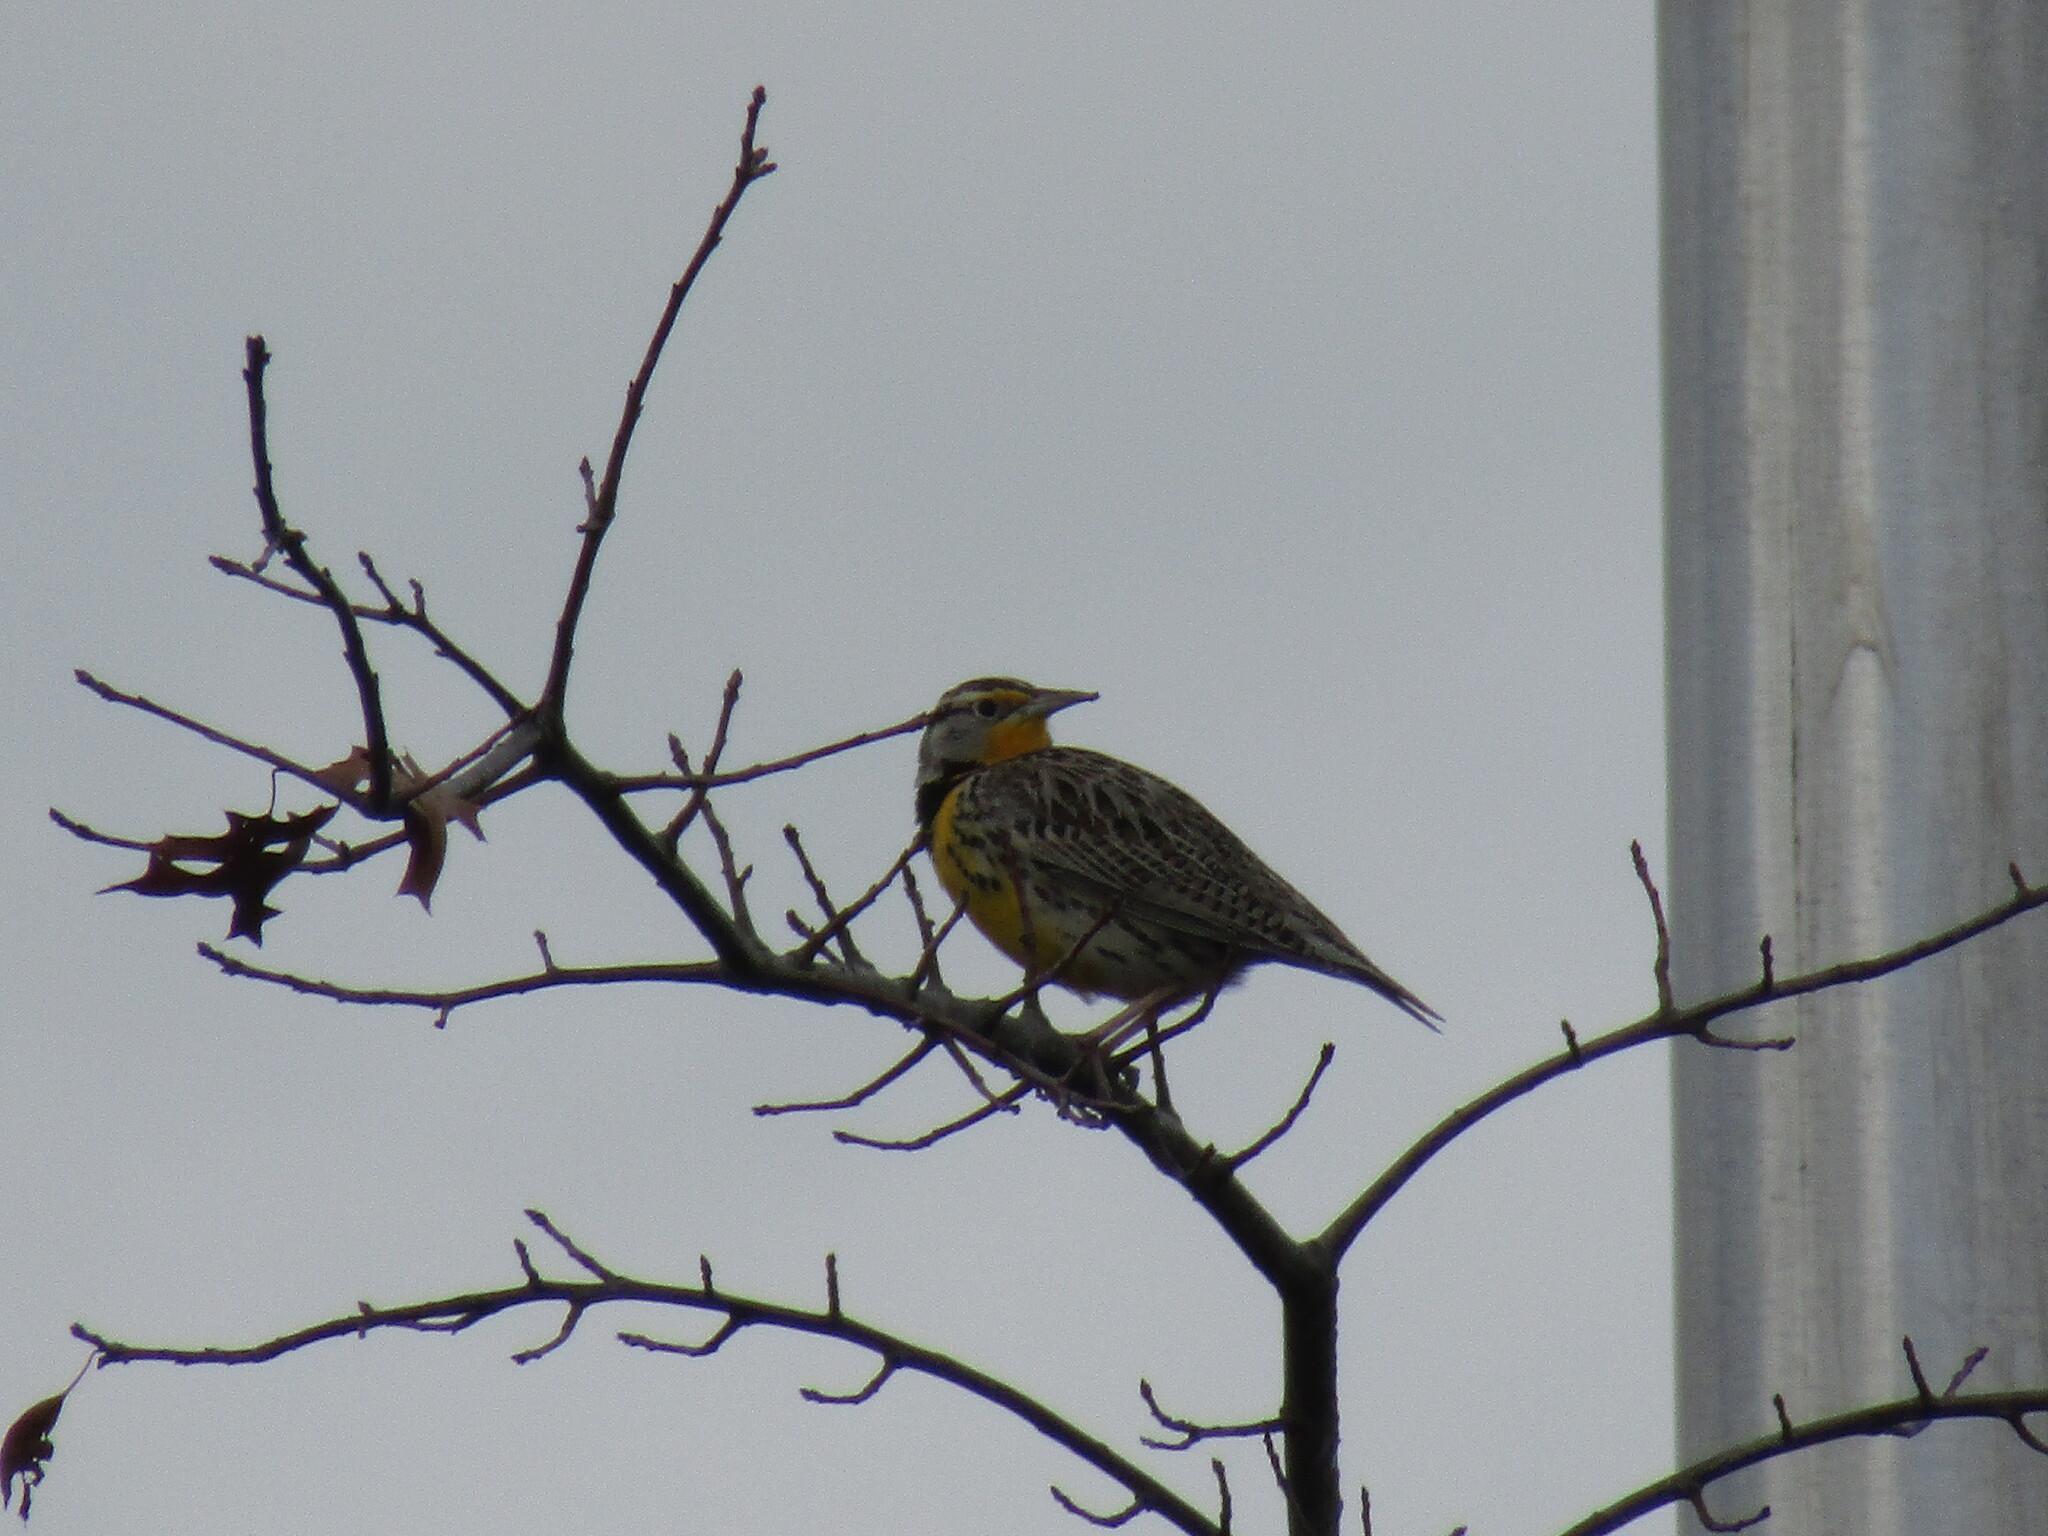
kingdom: Animalia
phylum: Chordata
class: Aves
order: Passeriformes
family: Icteridae
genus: Sturnella
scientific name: Sturnella neglecta
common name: Western meadowlark
